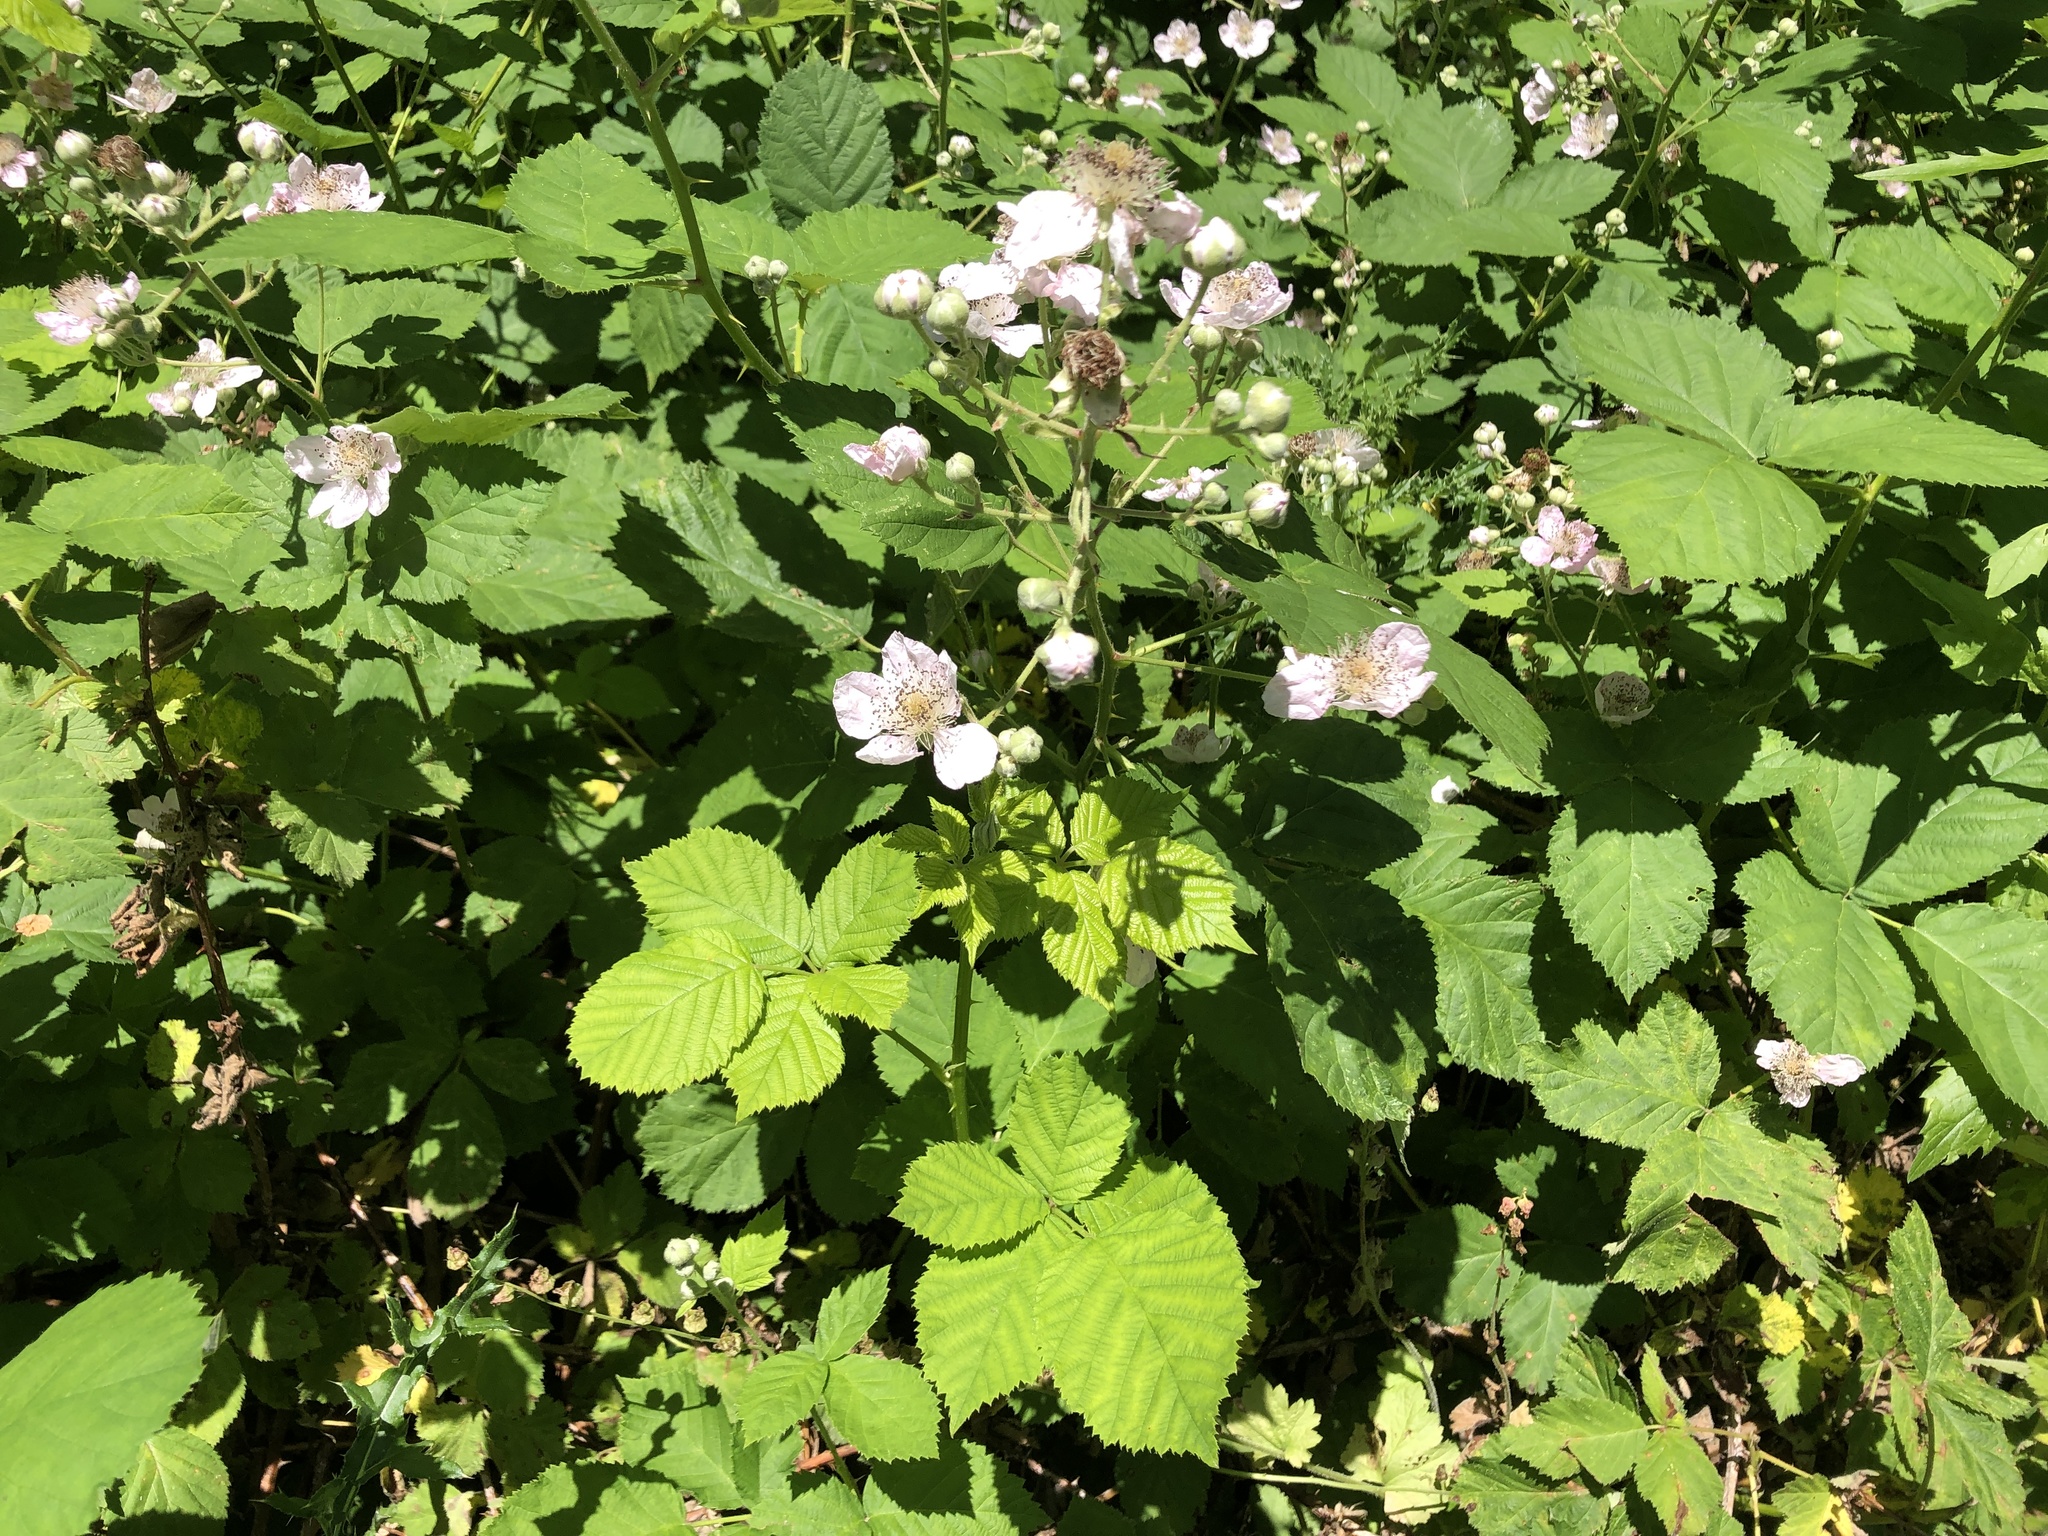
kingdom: Plantae
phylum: Tracheophyta
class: Magnoliopsida
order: Rosales
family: Rosaceae
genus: Rubus
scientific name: Rubus bifrons
